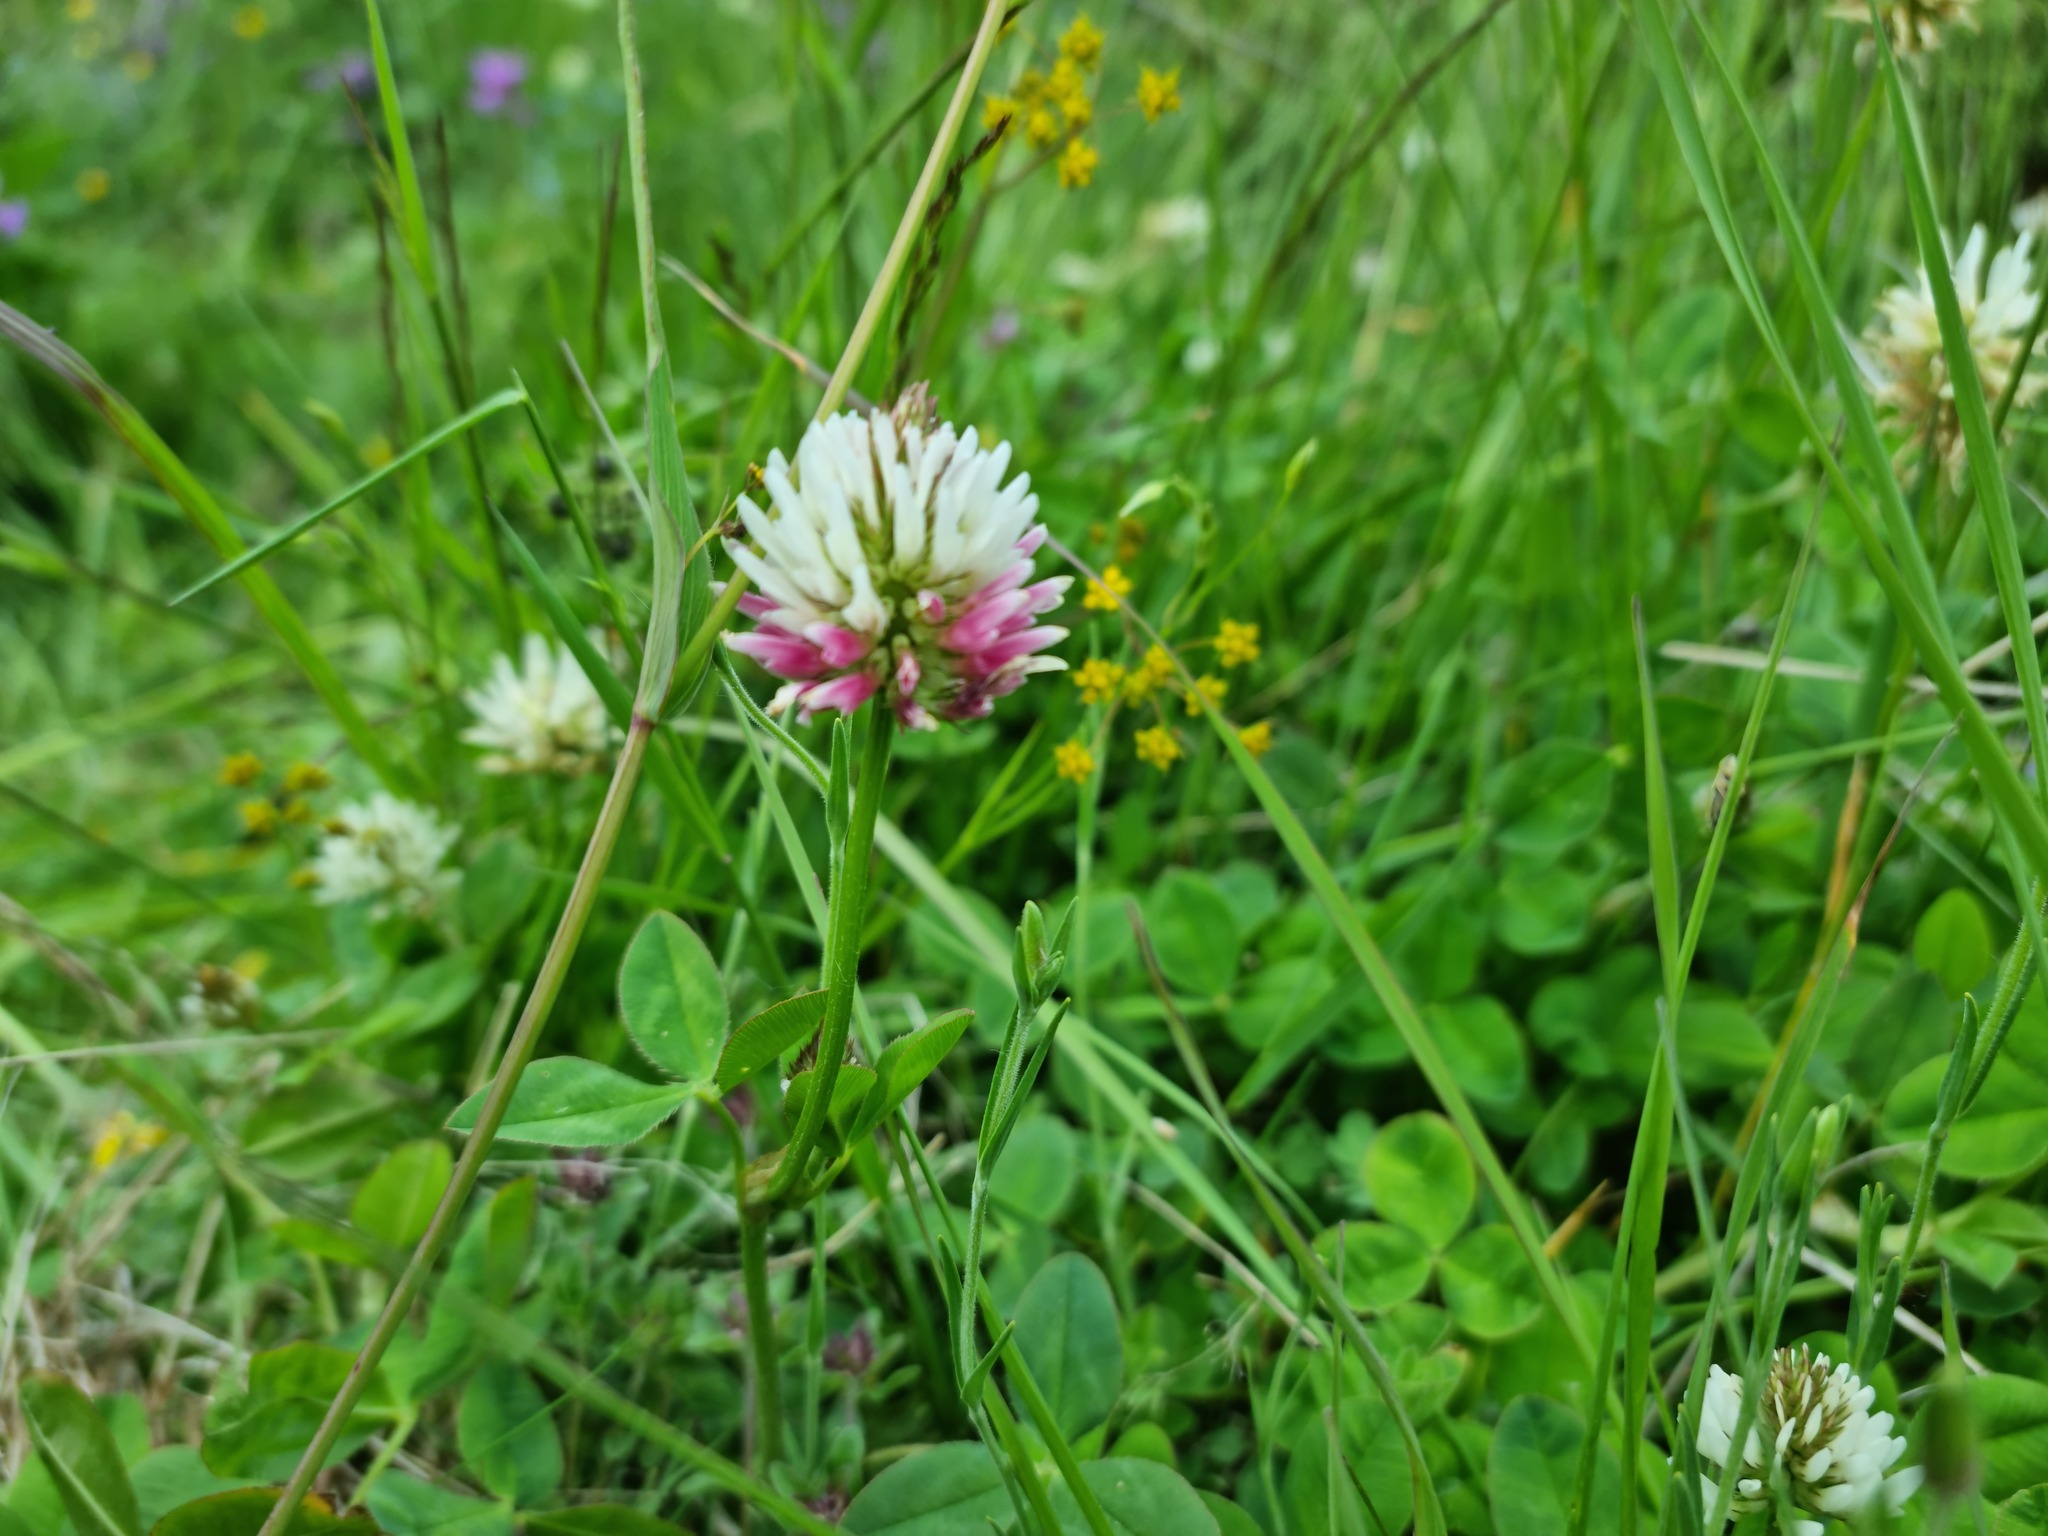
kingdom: Plantae
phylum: Tracheophyta
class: Magnoliopsida
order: Fabales
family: Fabaceae
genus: Trifolium
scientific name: Trifolium ambiguum
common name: Kura clover
